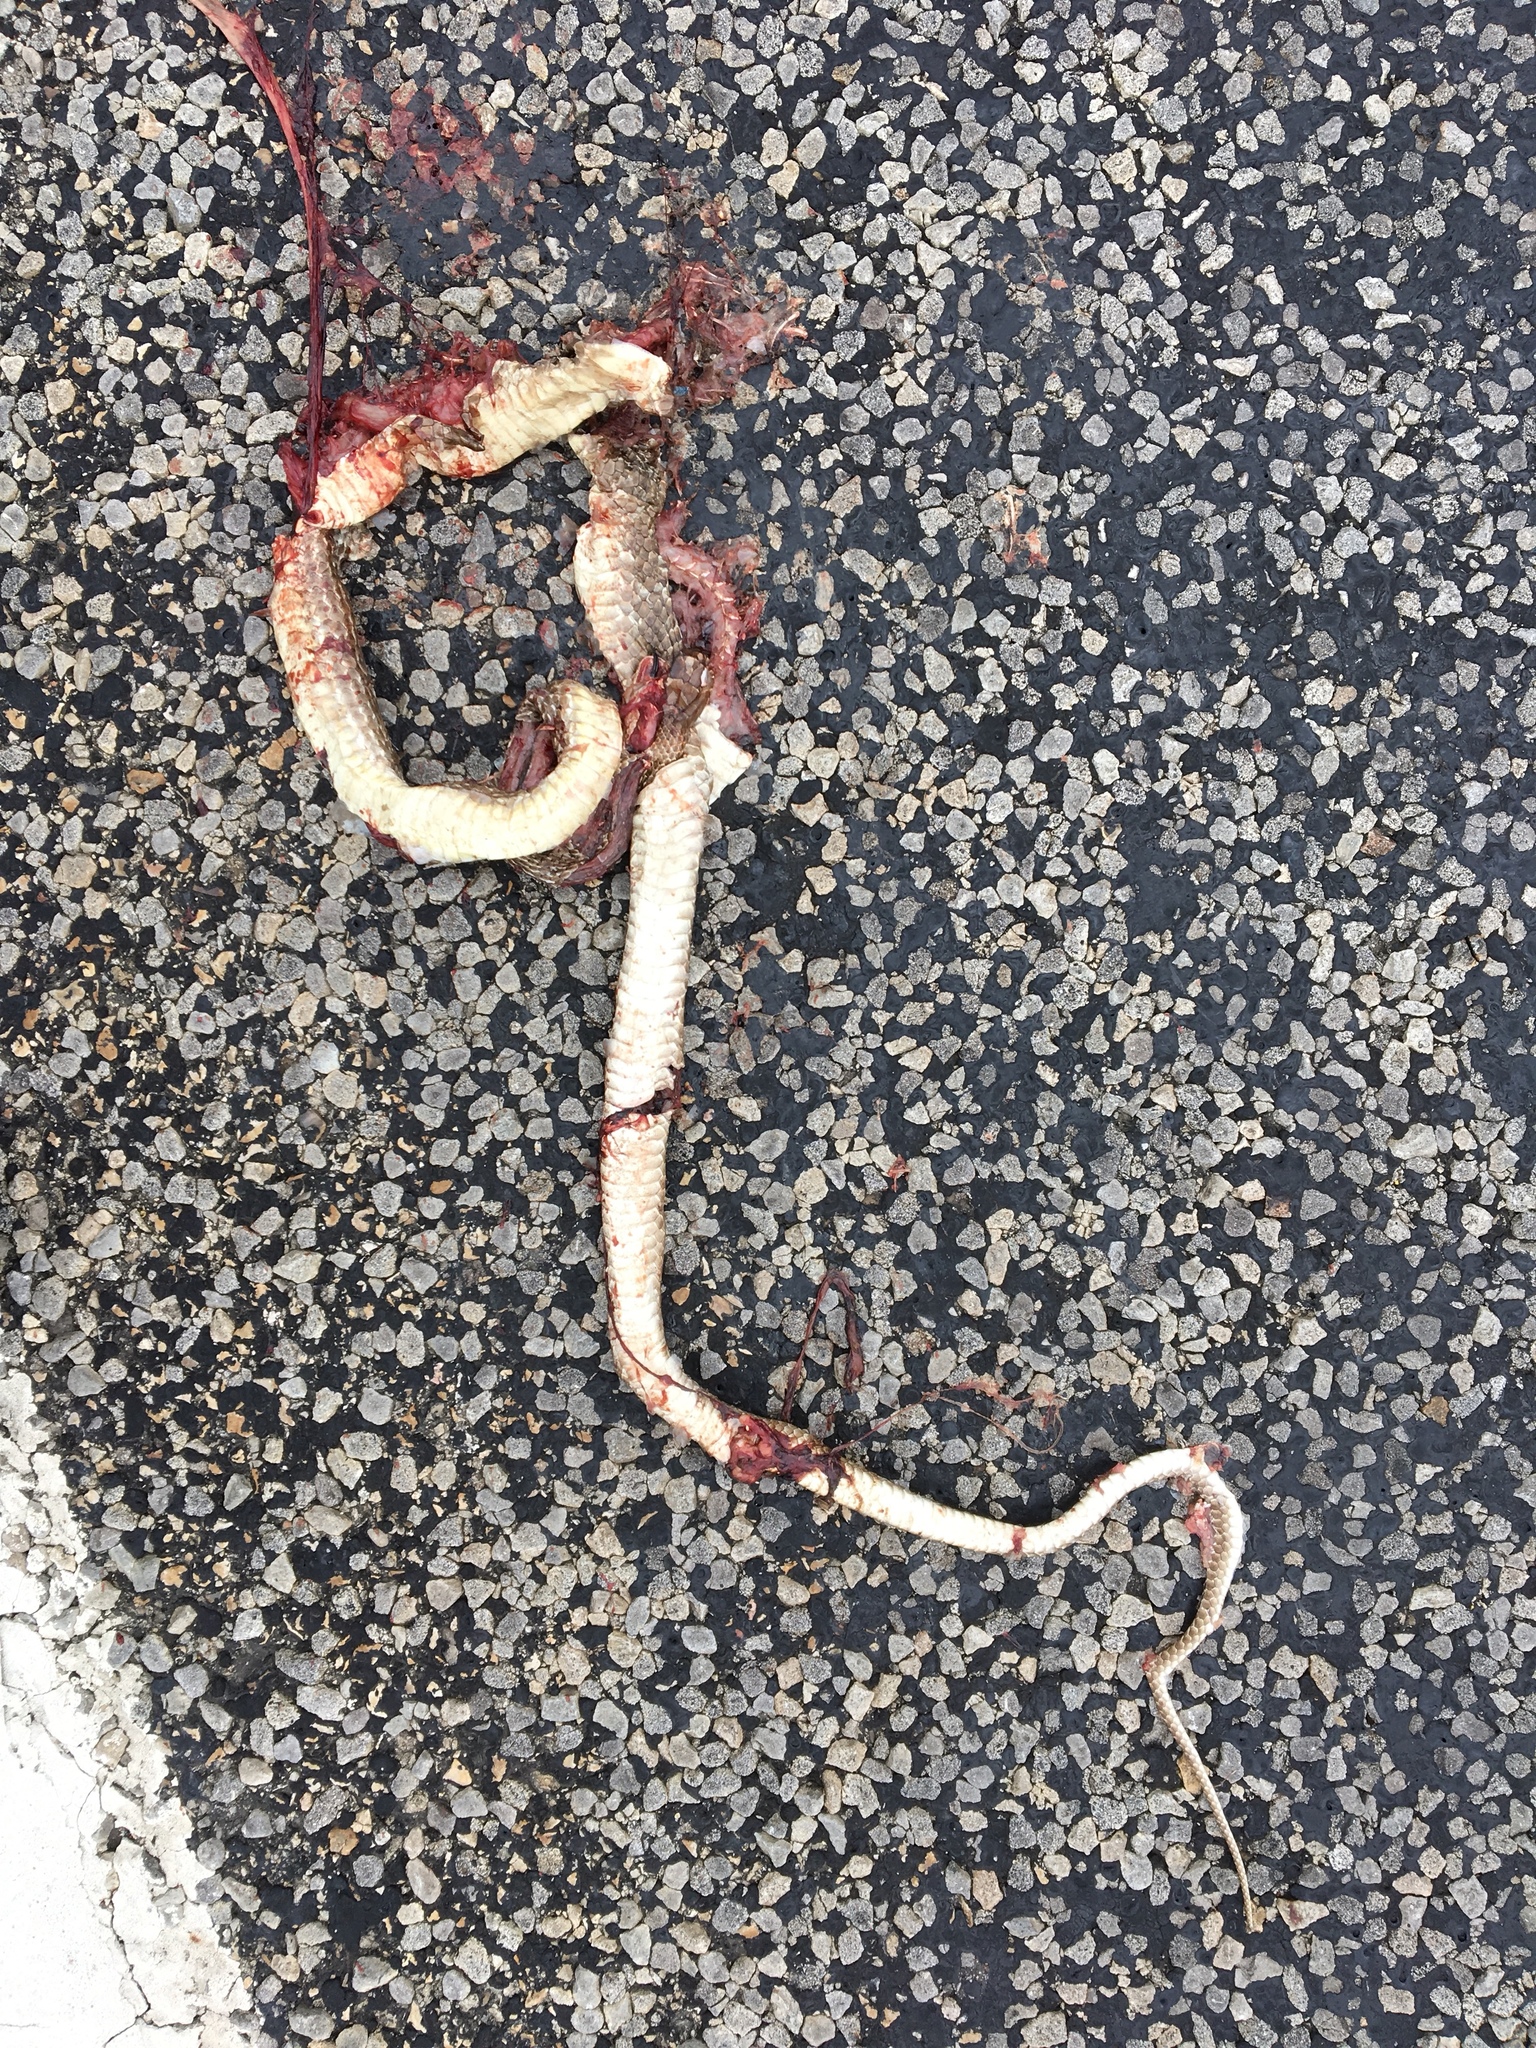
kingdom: Animalia
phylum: Chordata
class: Squamata
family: Colubridae
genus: Masticophis
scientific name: Masticophis flagellum
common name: Coachwhip
